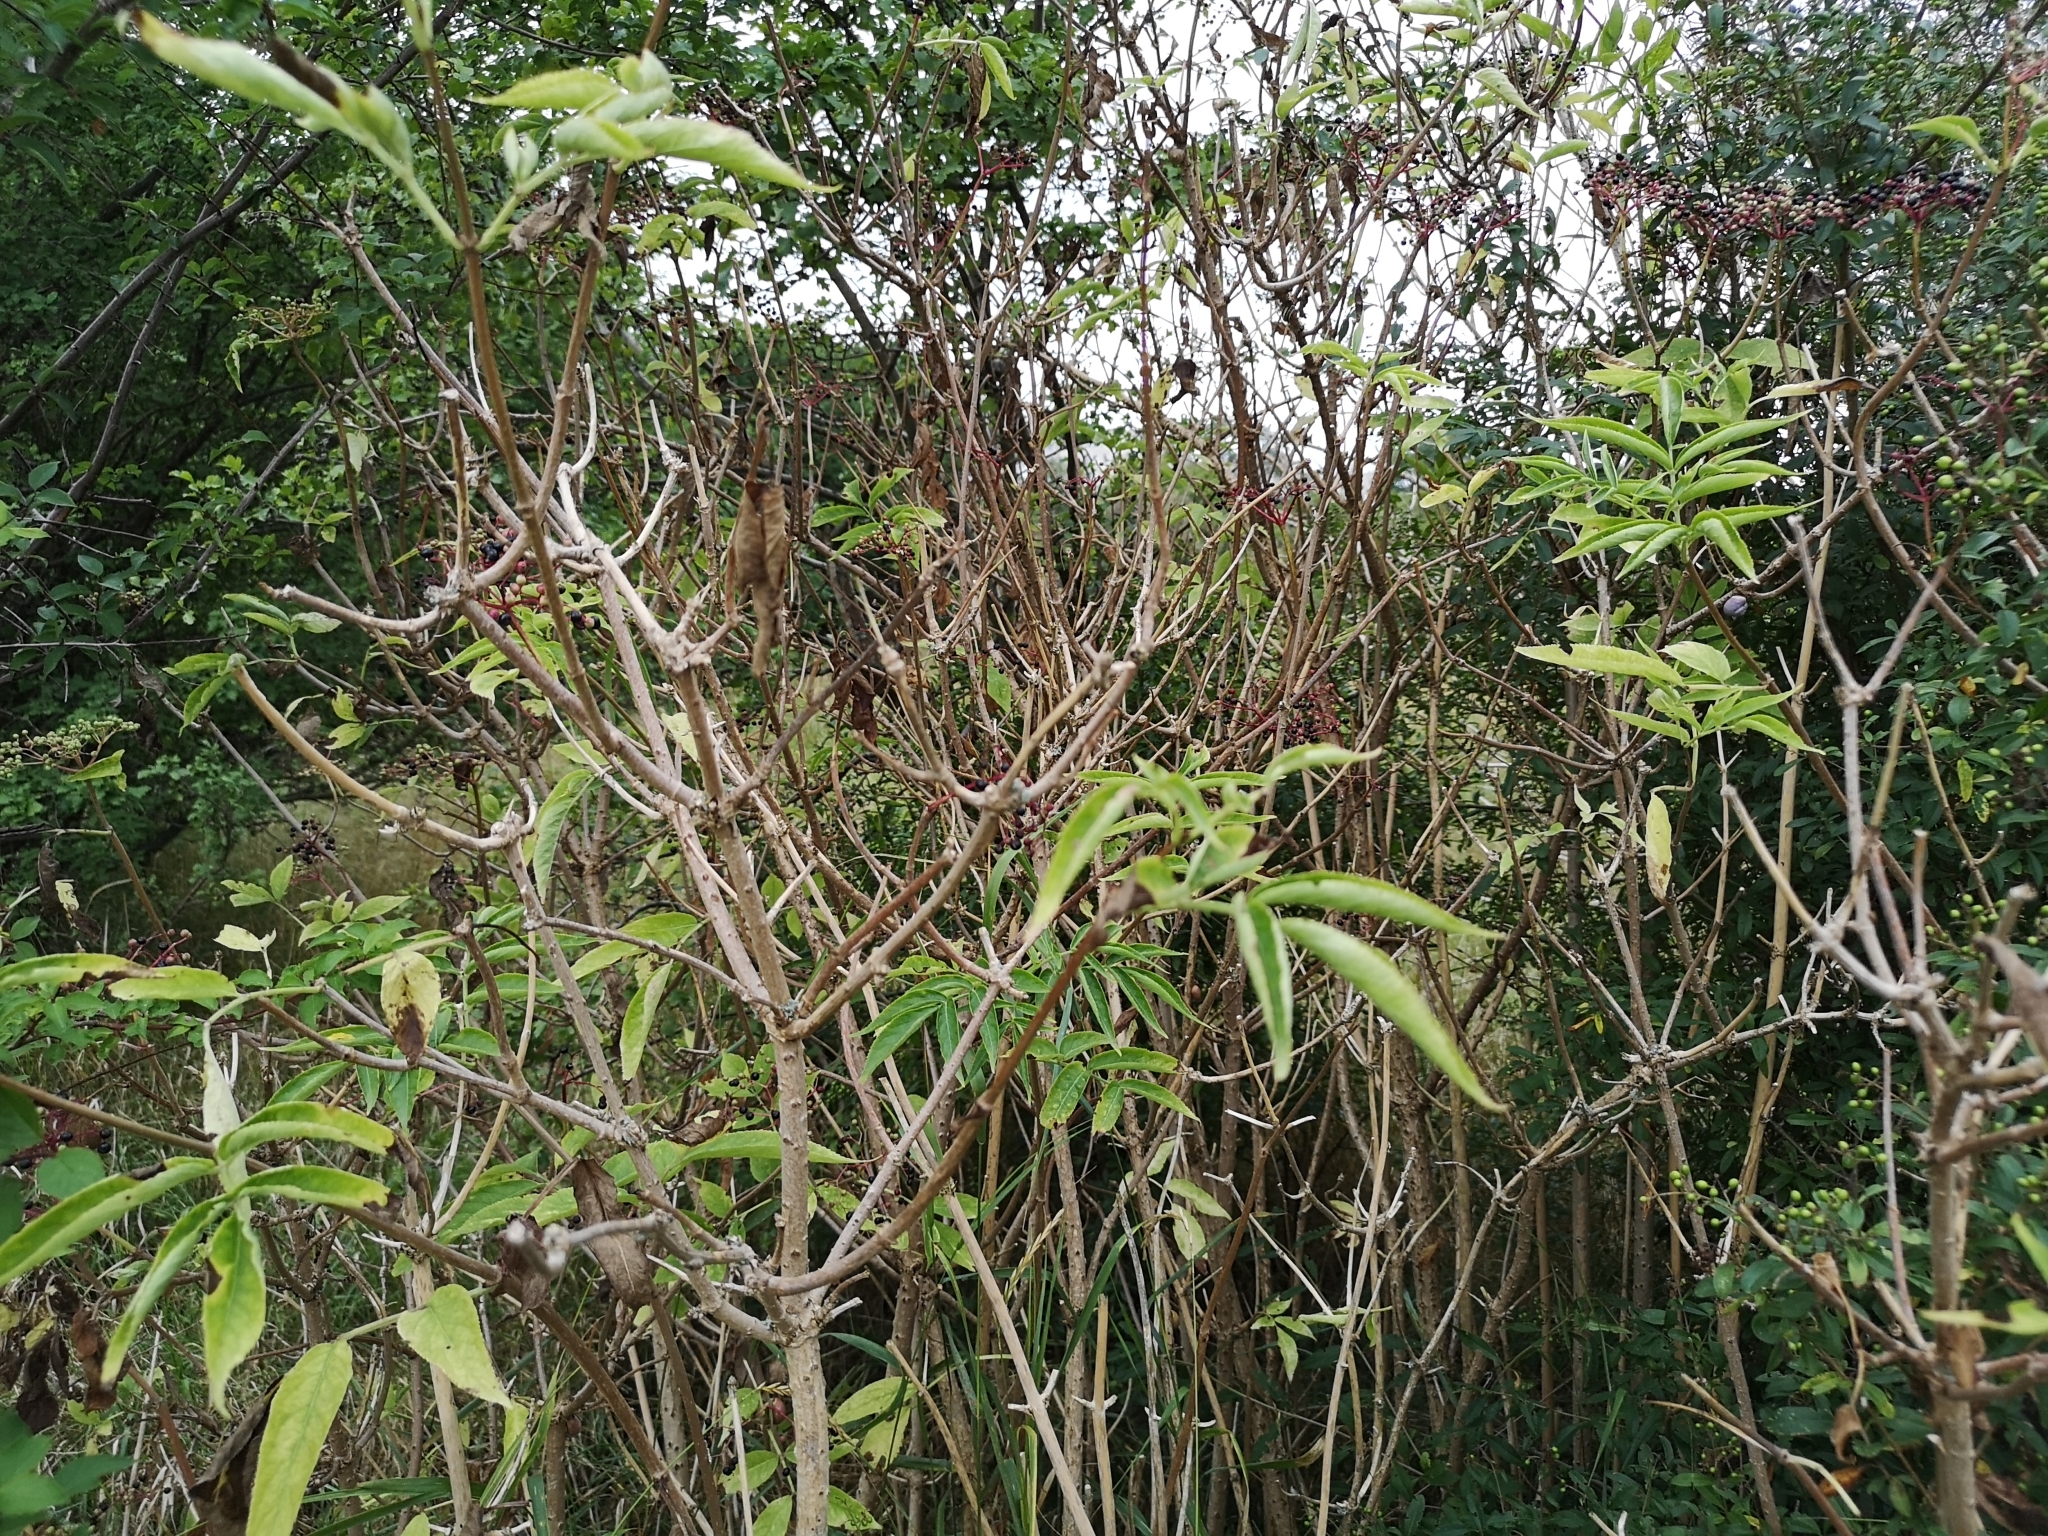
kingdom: Plantae
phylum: Tracheophyta
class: Magnoliopsida
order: Dipsacales
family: Viburnaceae
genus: Sambucus
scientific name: Sambucus nigra
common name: Elder
